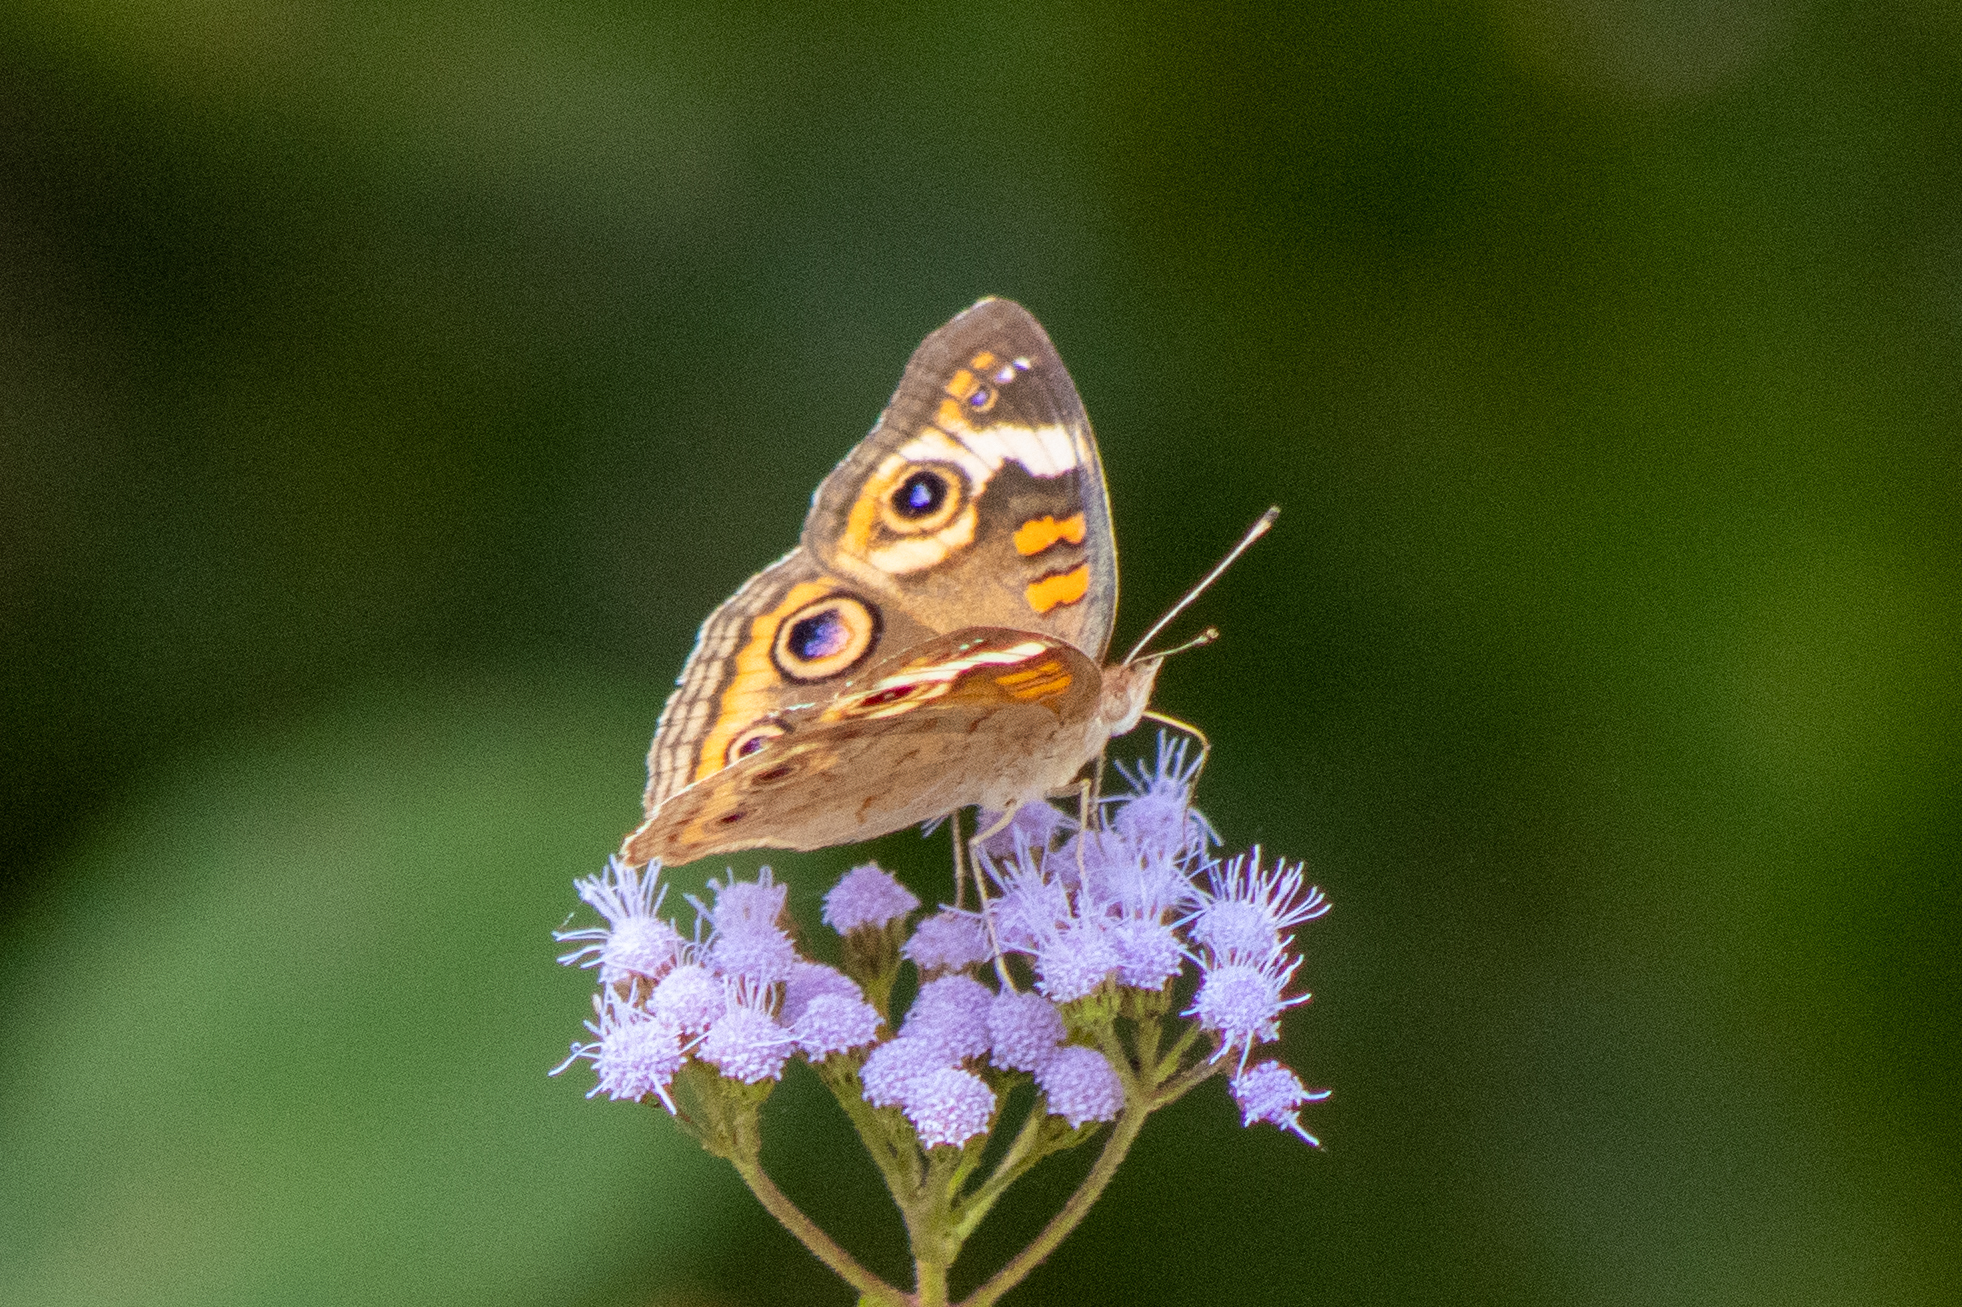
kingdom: Animalia
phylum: Arthropoda
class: Insecta
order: Lepidoptera
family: Nymphalidae
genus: Junonia
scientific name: Junonia coenia
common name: Common buckeye
